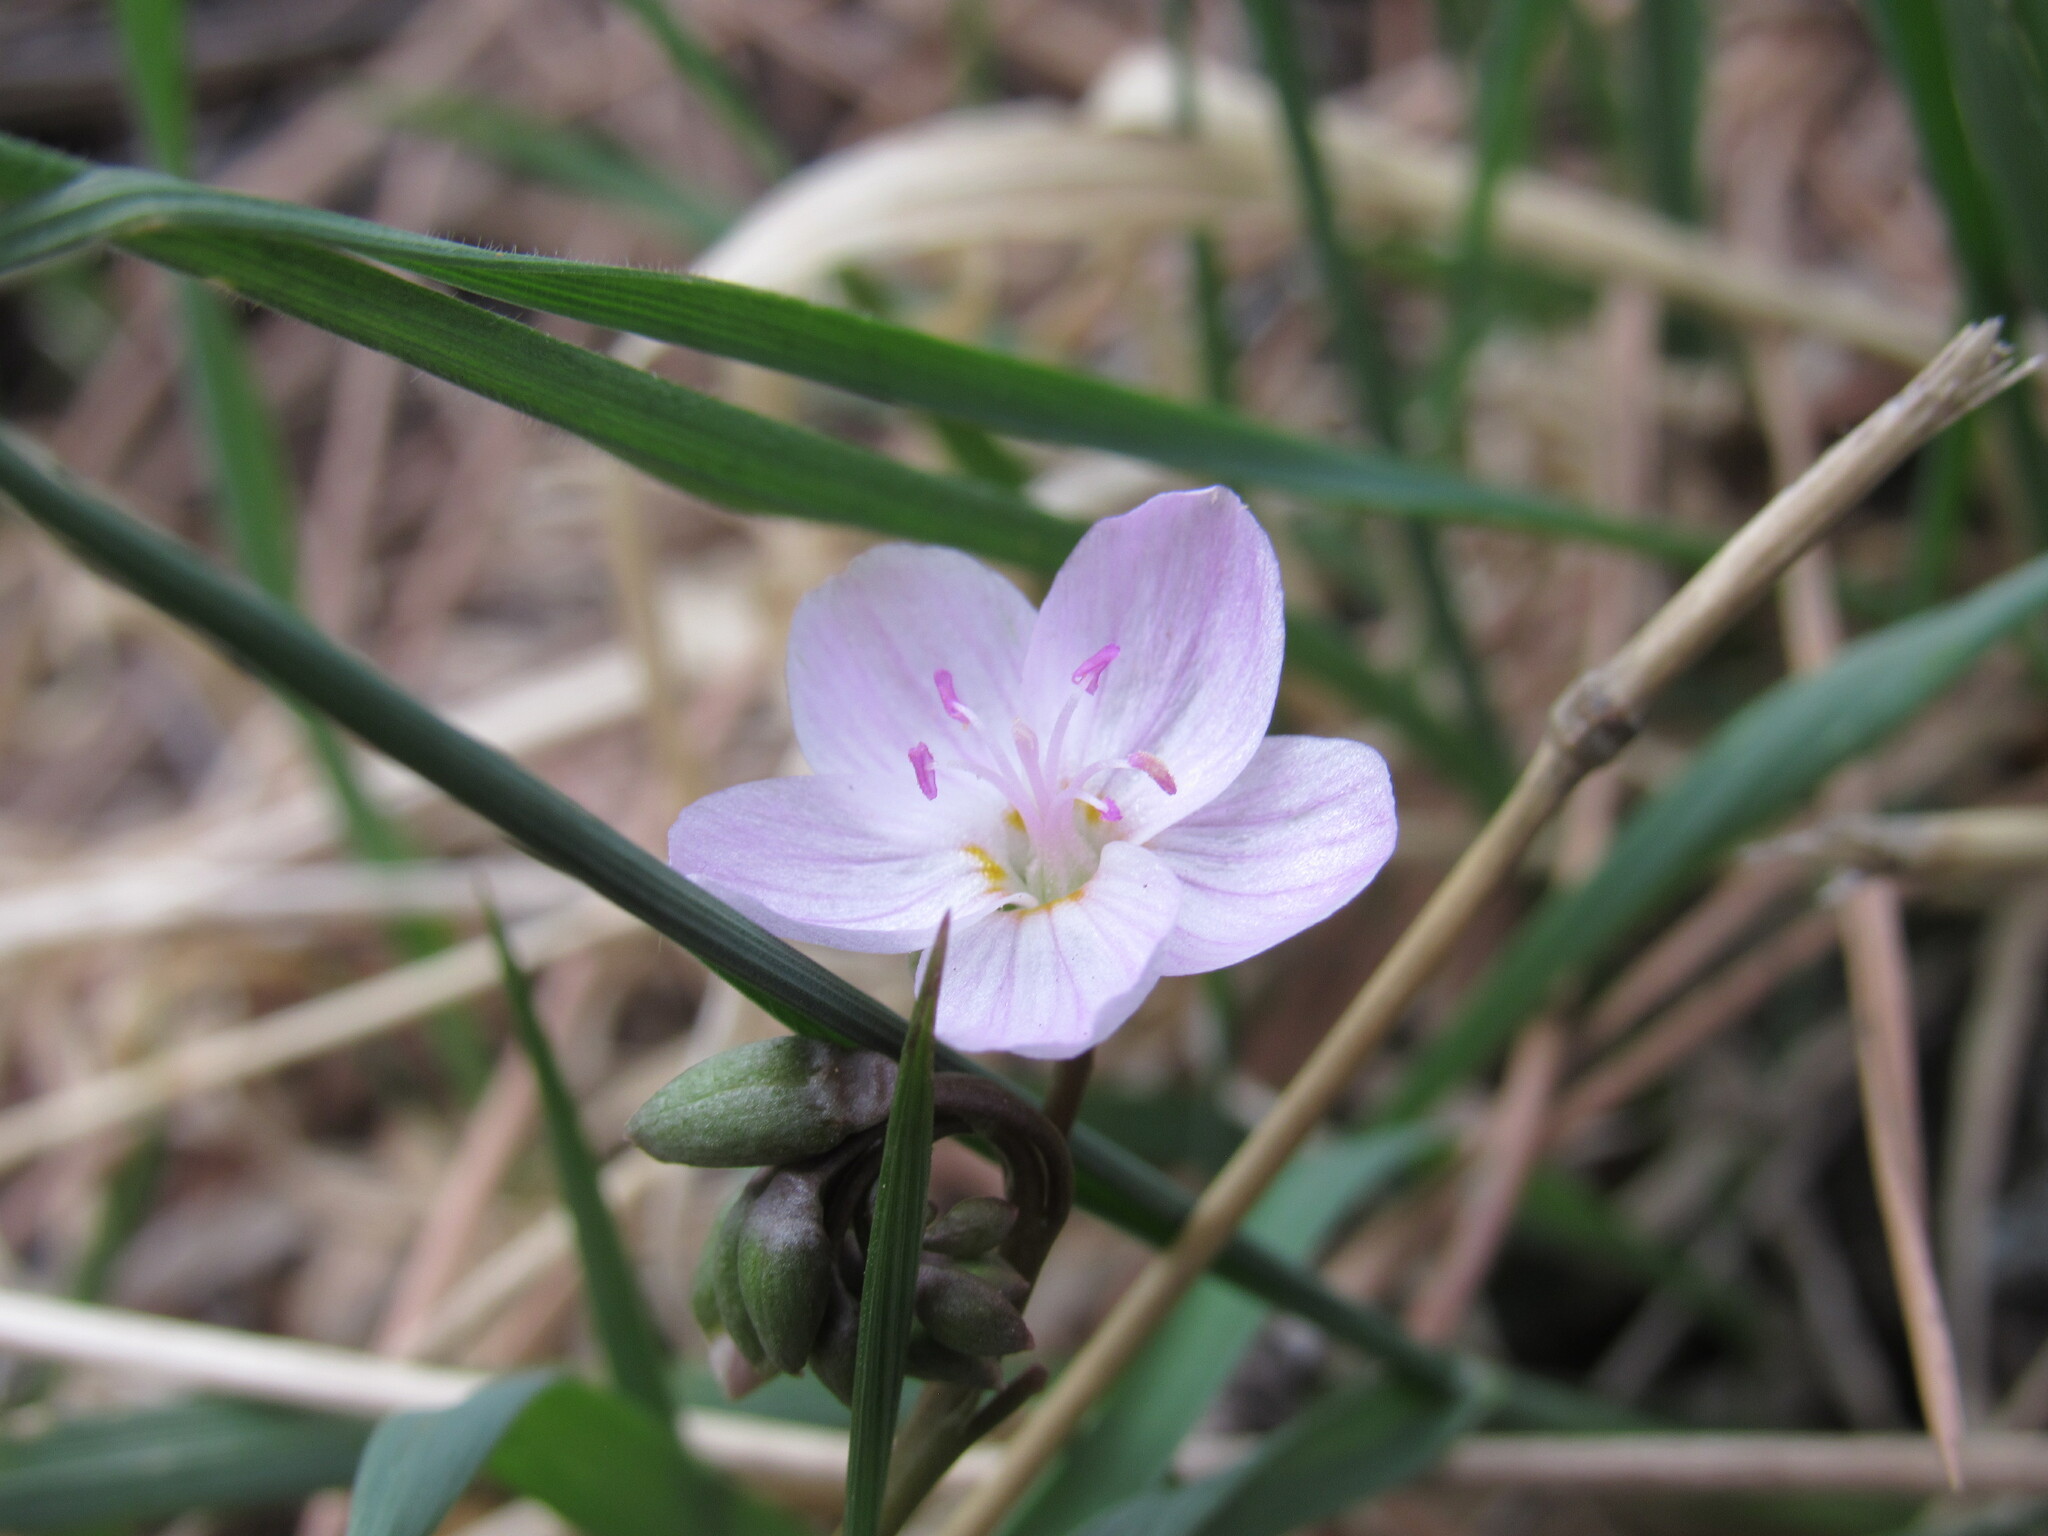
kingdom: Plantae
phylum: Tracheophyta
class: Magnoliopsida
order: Caryophyllales
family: Montiaceae
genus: Claytonia
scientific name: Claytonia rosea
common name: Rocky mountain spring-beauty
